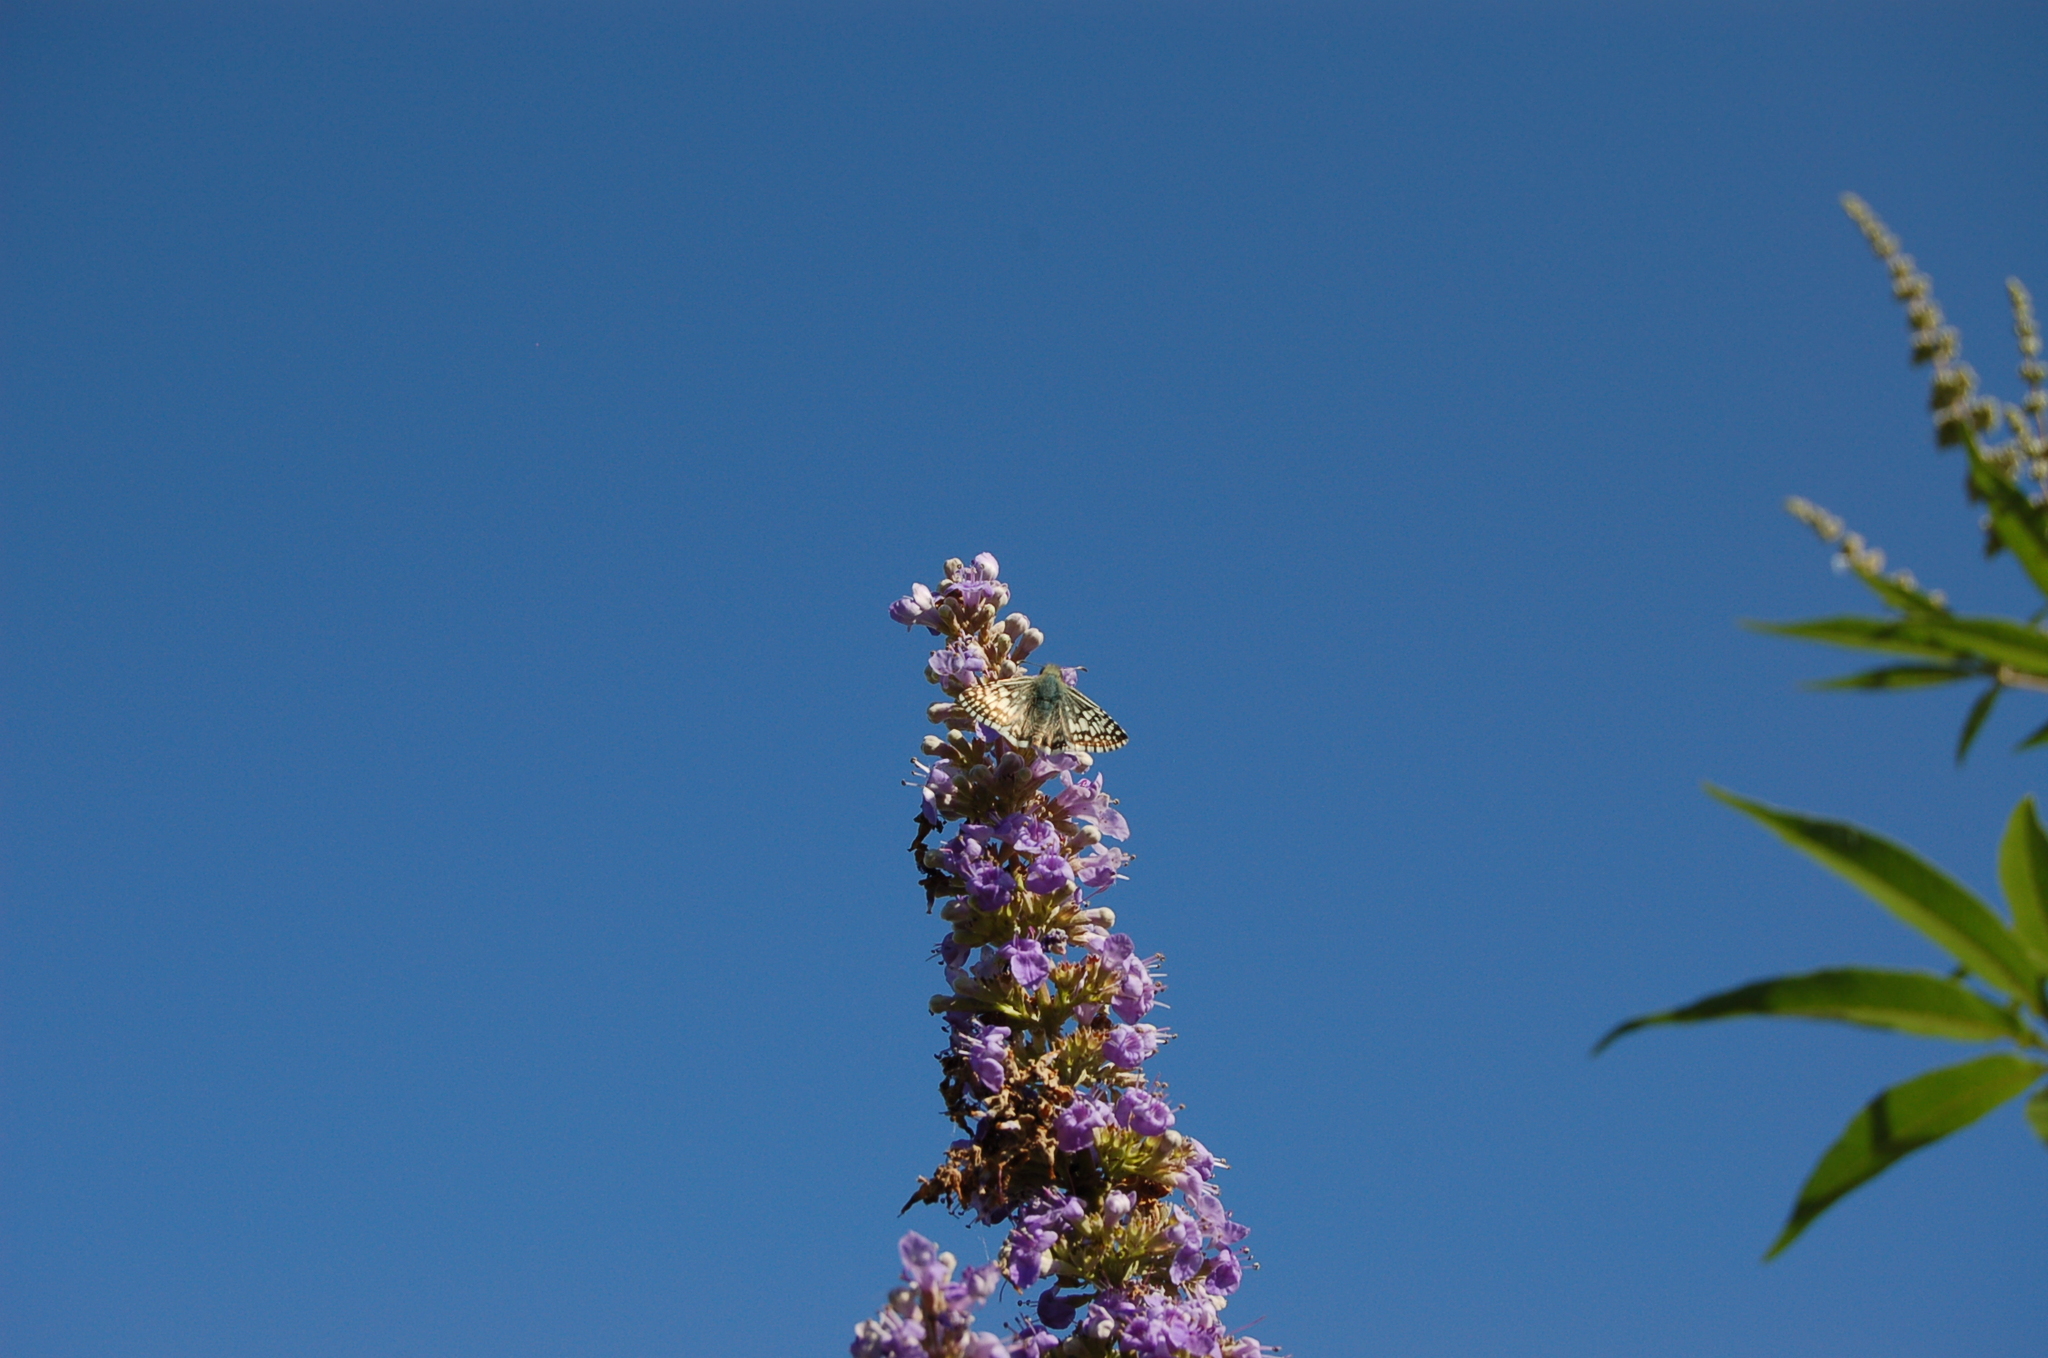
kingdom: Animalia
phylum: Arthropoda
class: Insecta
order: Lepidoptera
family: Hesperiidae
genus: Burnsius
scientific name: Burnsius communis
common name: Common checkered-skipper
